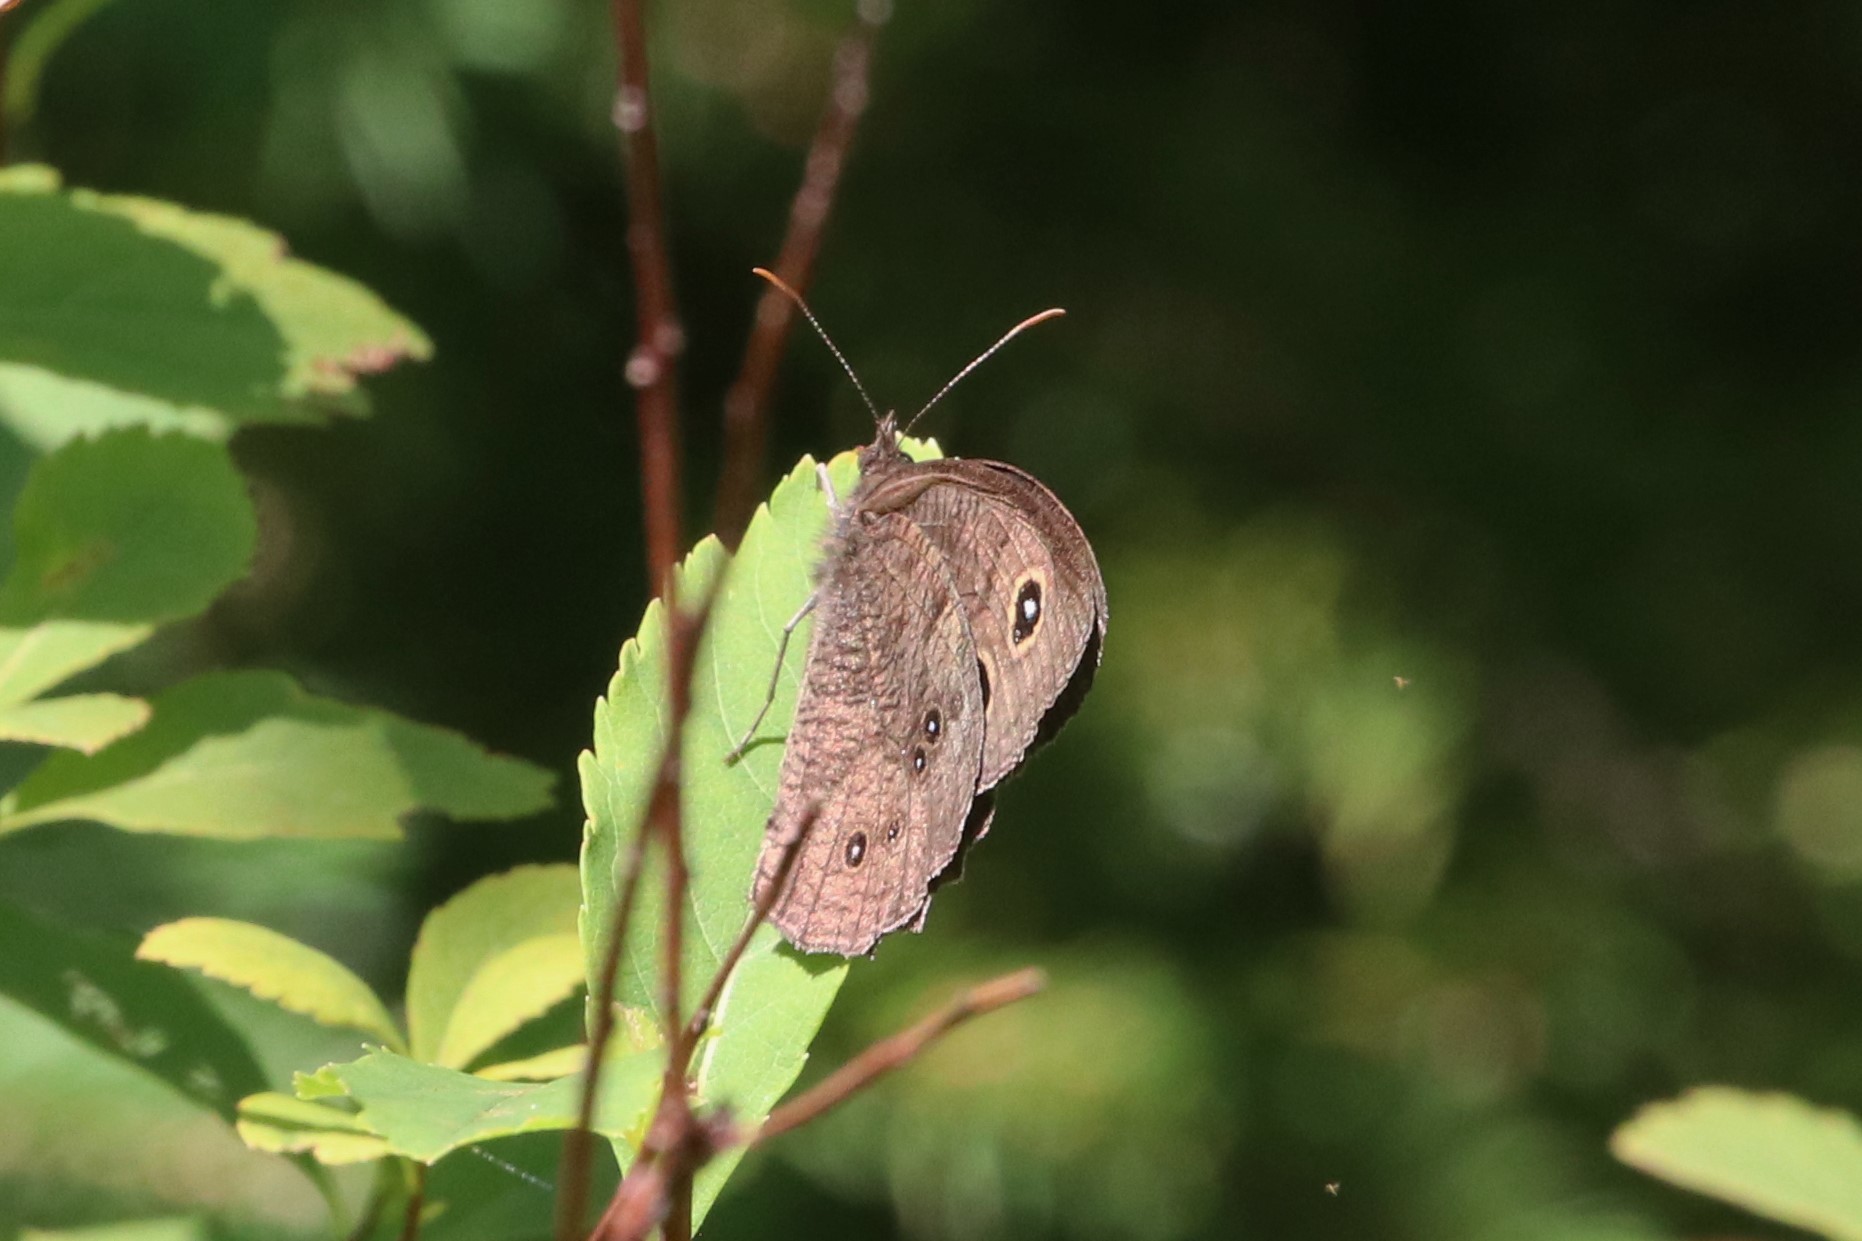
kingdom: Animalia
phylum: Arthropoda
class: Insecta
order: Lepidoptera
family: Nymphalidae
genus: Cercyonis
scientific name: Cercyonis pegala
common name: Common wood-nymph
